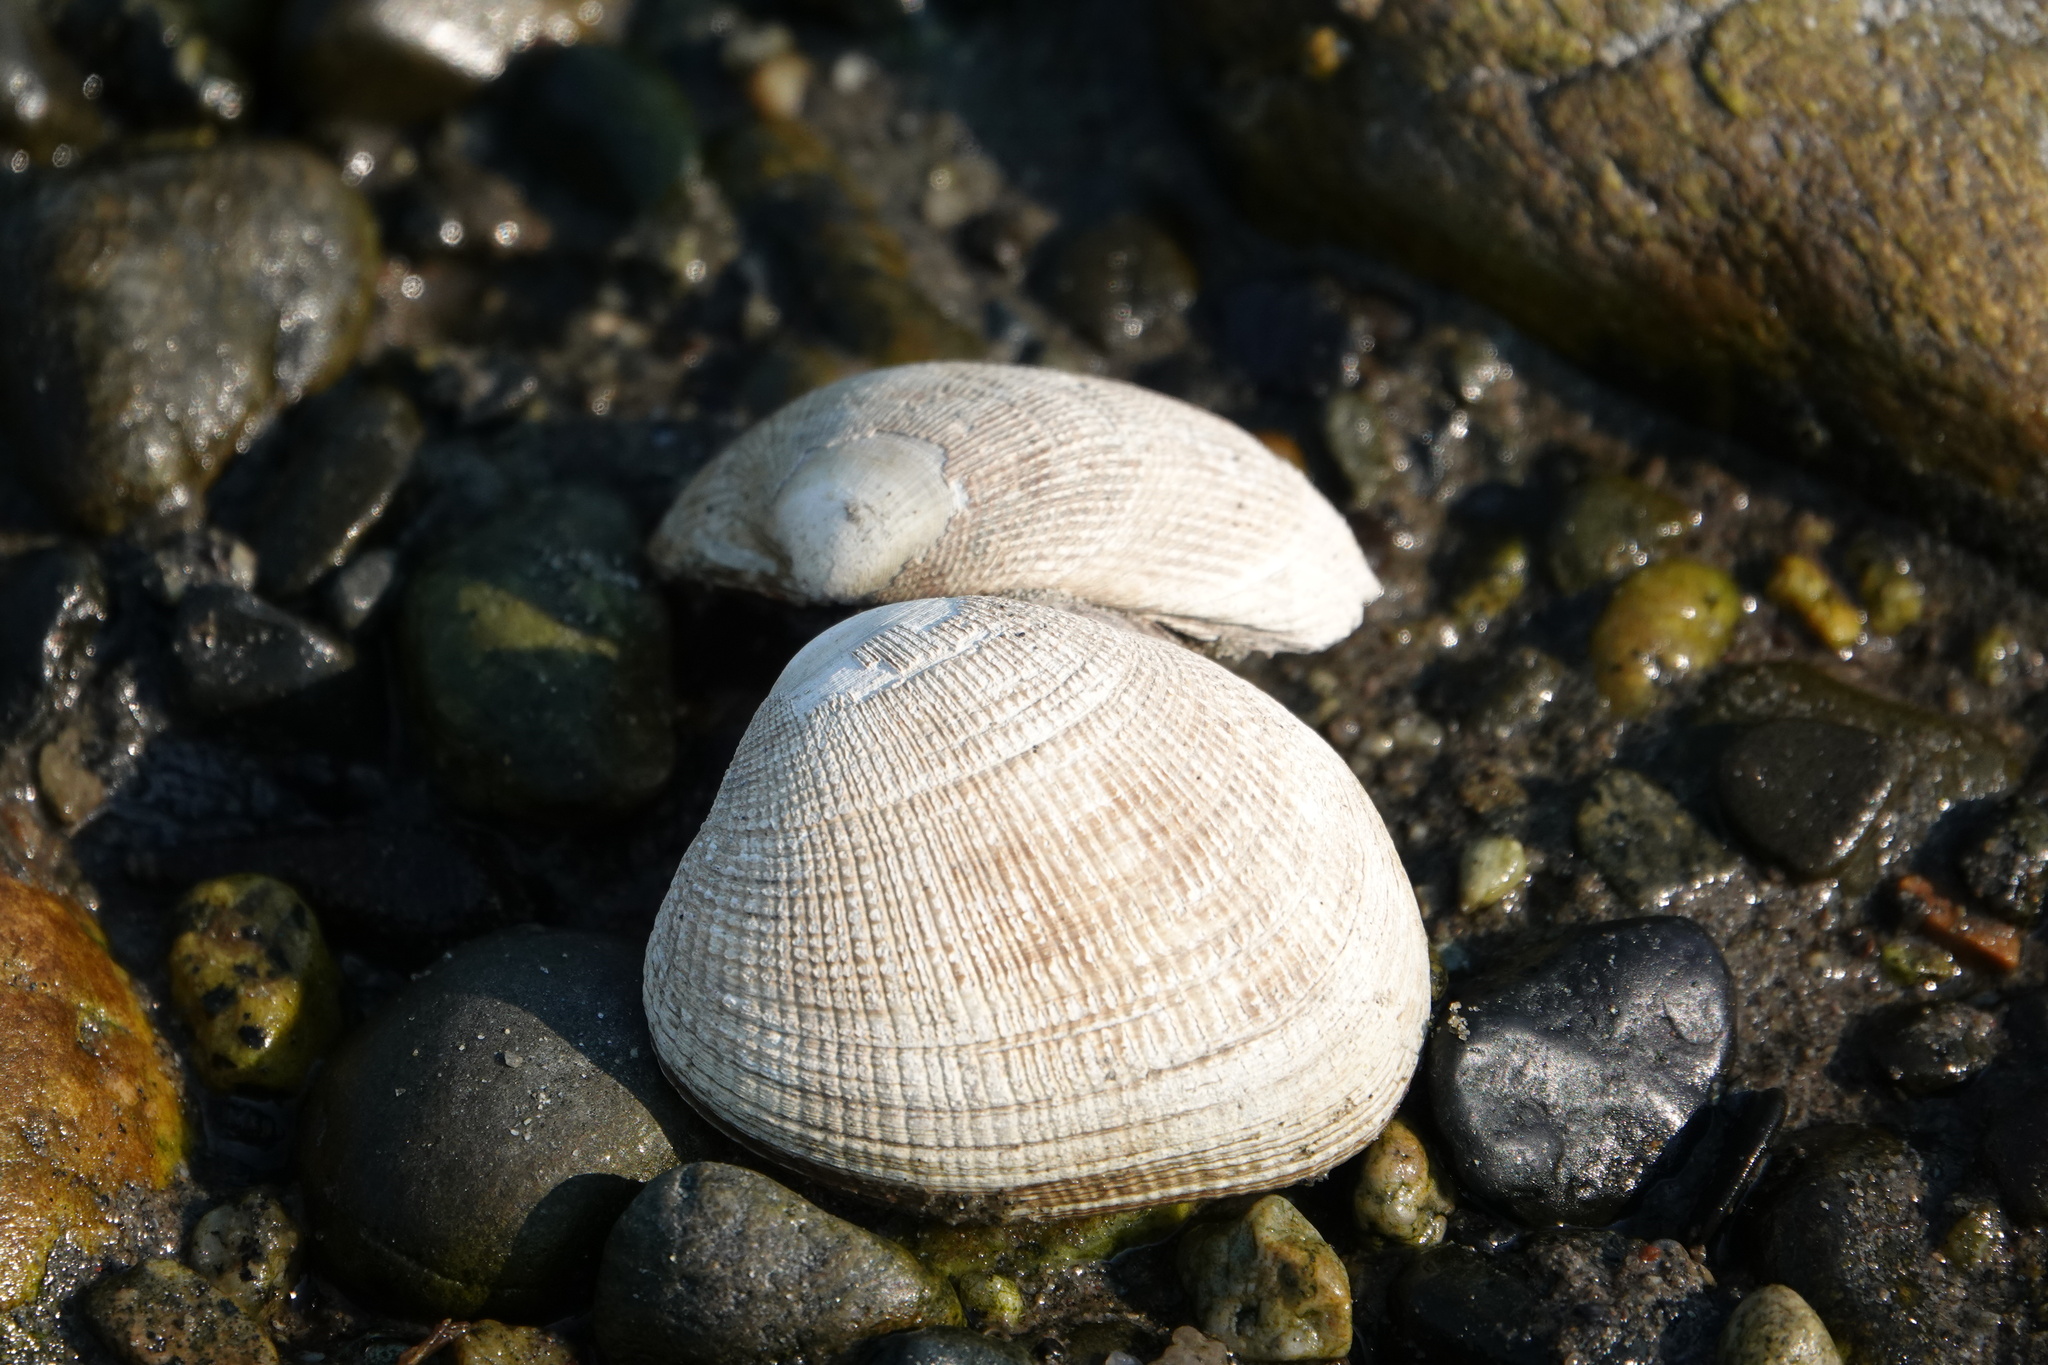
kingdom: Animalia
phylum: Mollusca
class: Bivalvia
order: Venerida
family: Veneridae
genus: Ruditapes
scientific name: Ruditapes philippinarum
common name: Manila clam
